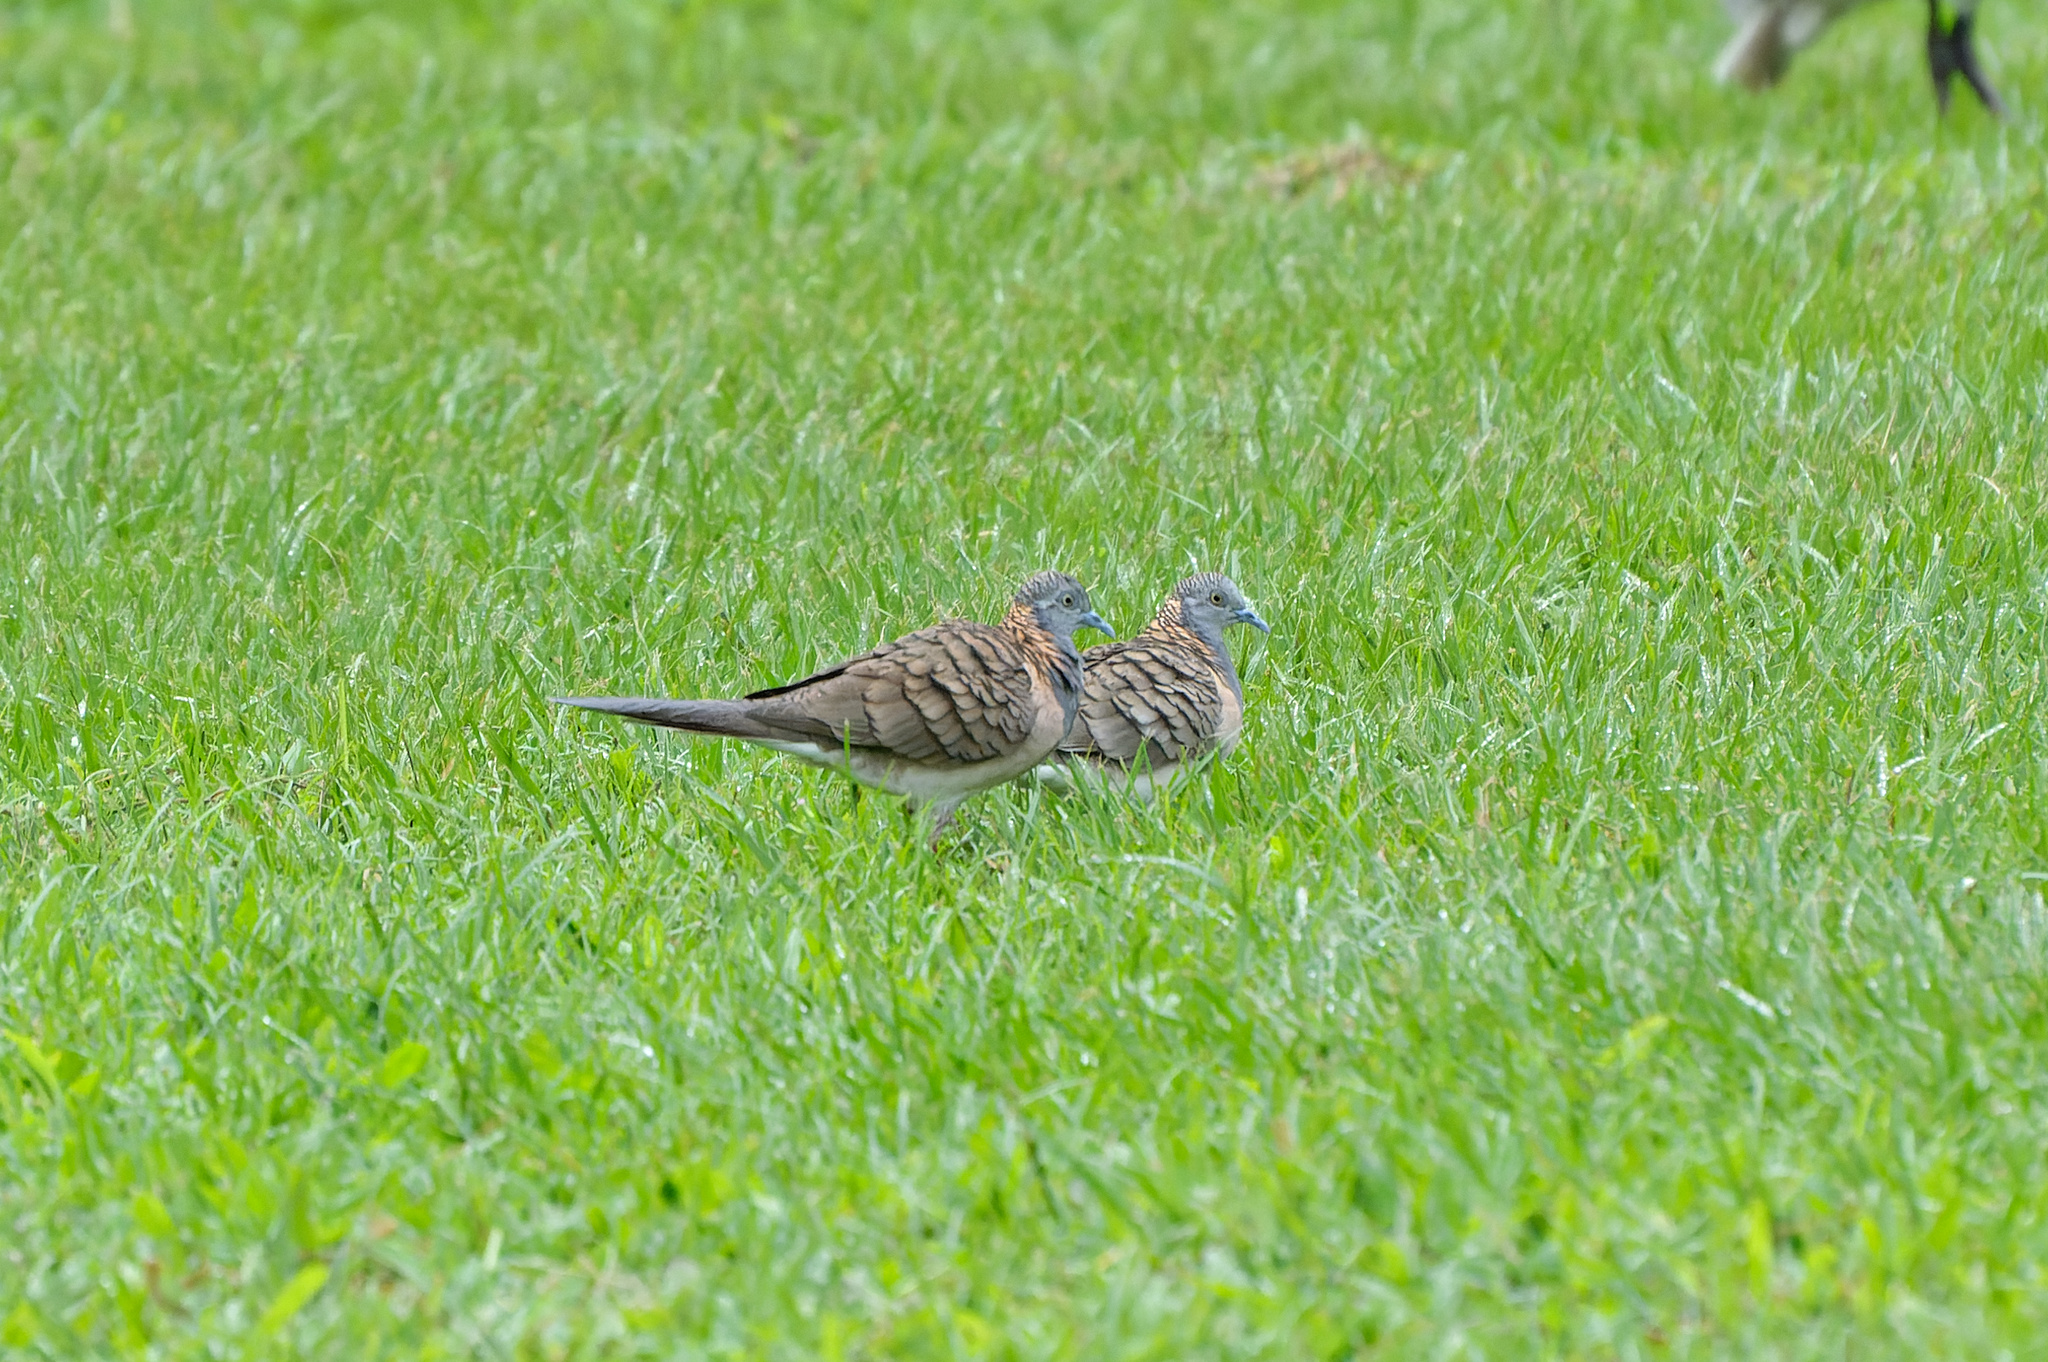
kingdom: Animalia
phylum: Chordata
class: Aves
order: Columbiformes
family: Columbidae
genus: Geopelia
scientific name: Geopelia humeralis
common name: Bar-shouldered dove
